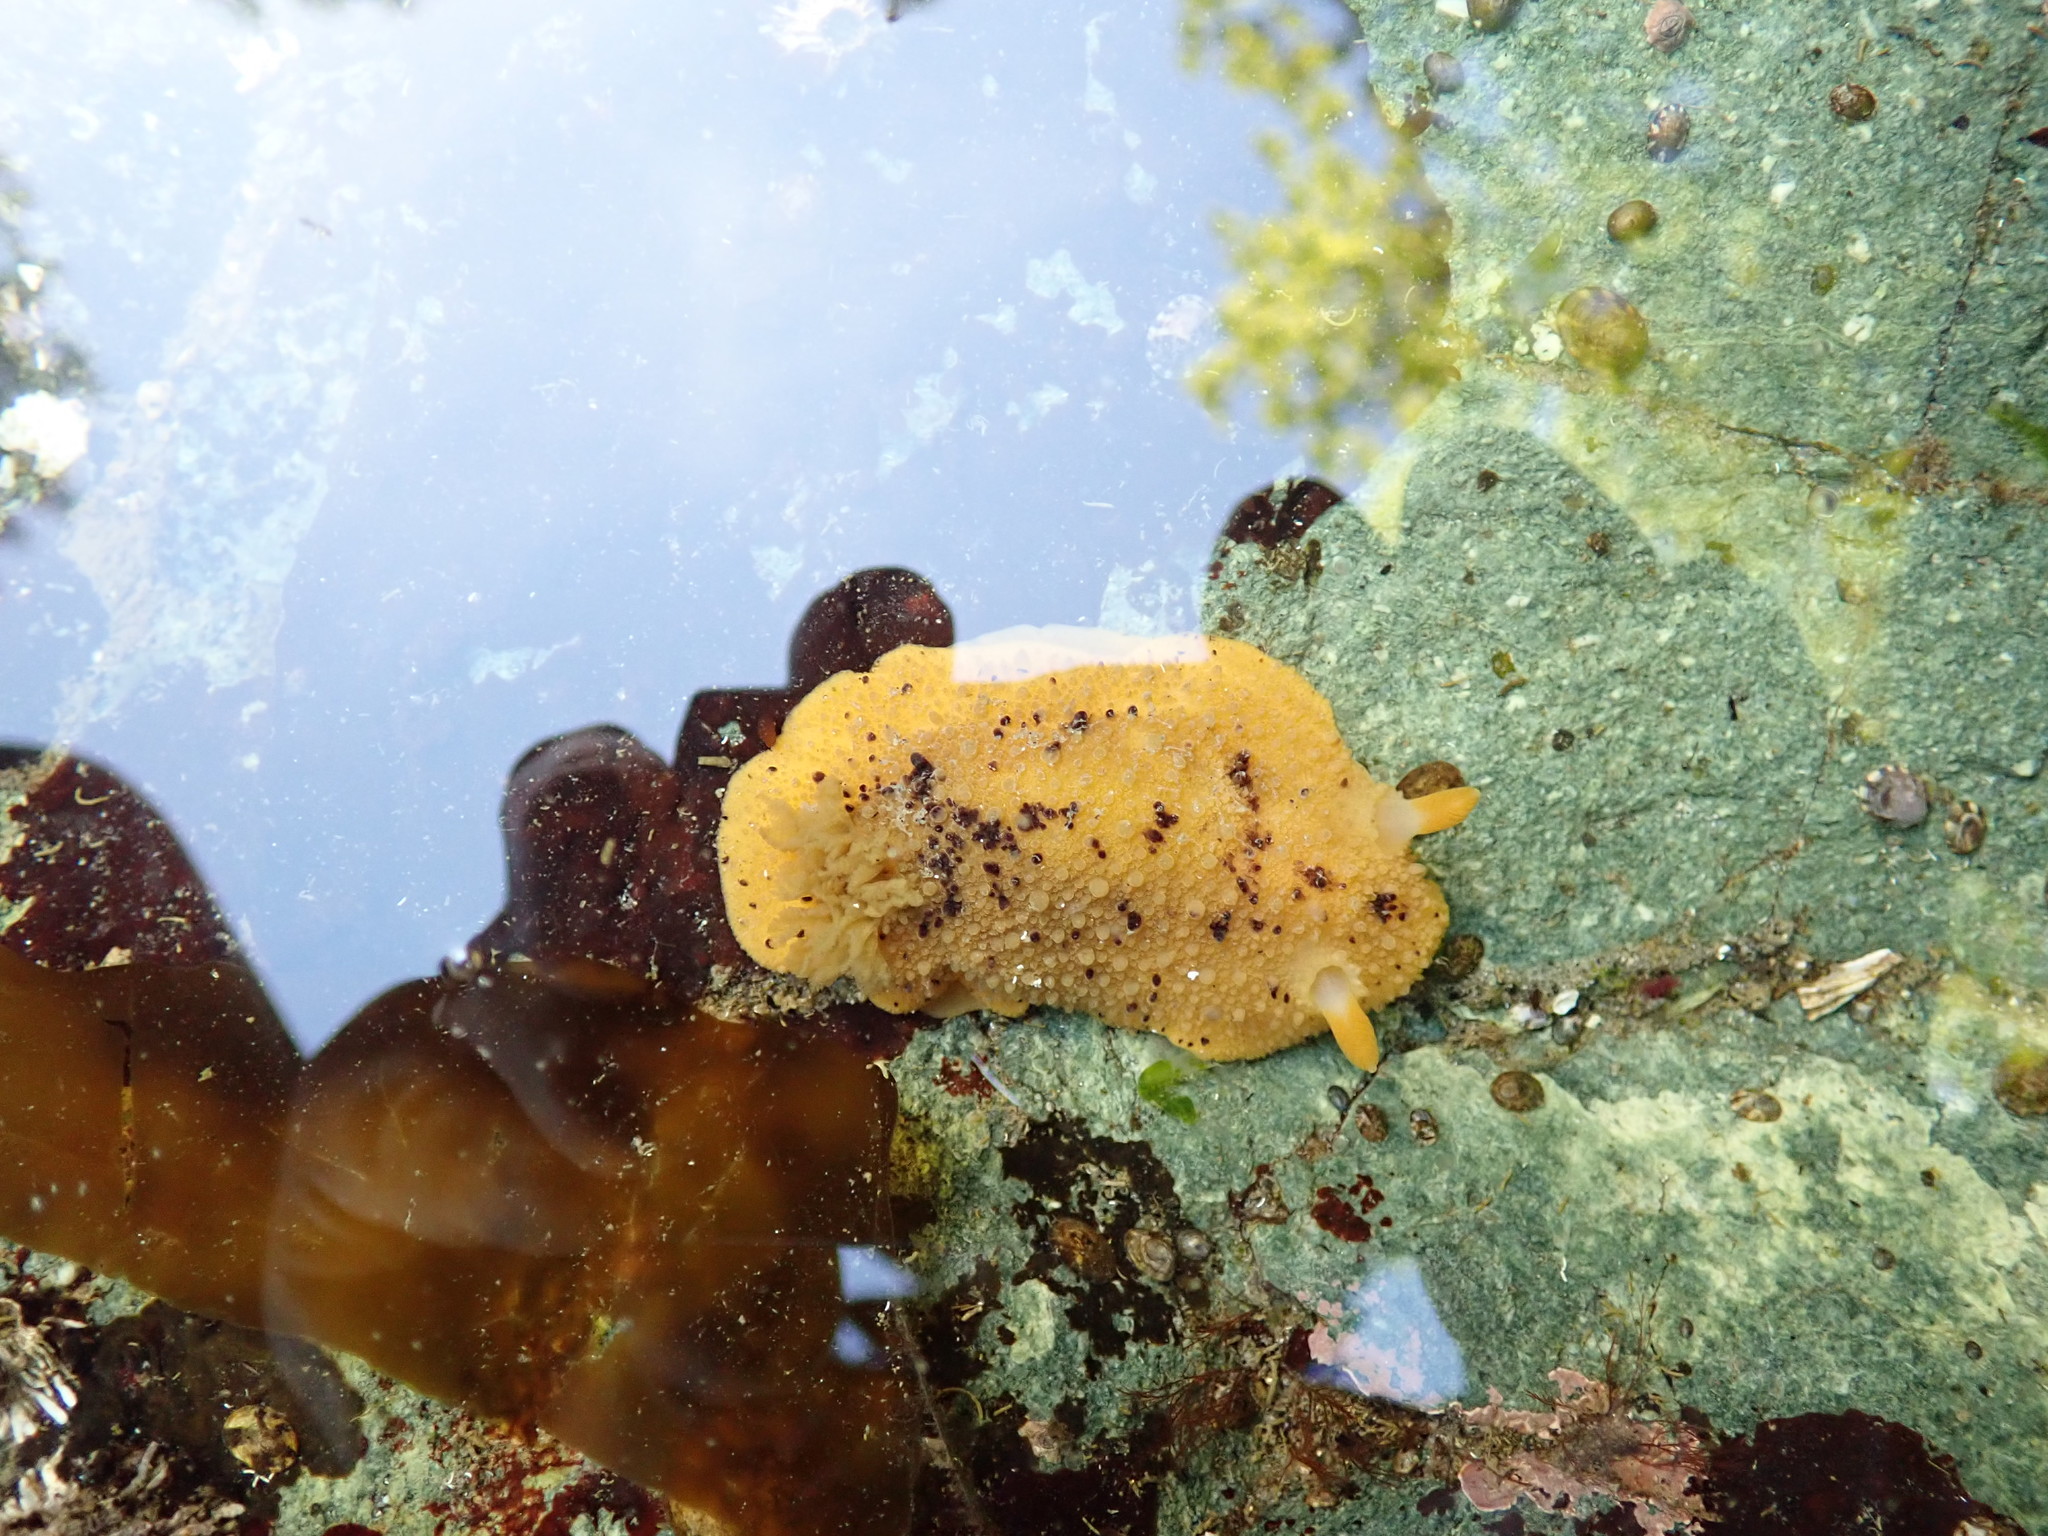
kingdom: Animalia
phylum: Mollusca
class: Gastropoda
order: Nudibranchia
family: Dorididae
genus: Doris
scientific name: Doris montereyensis
